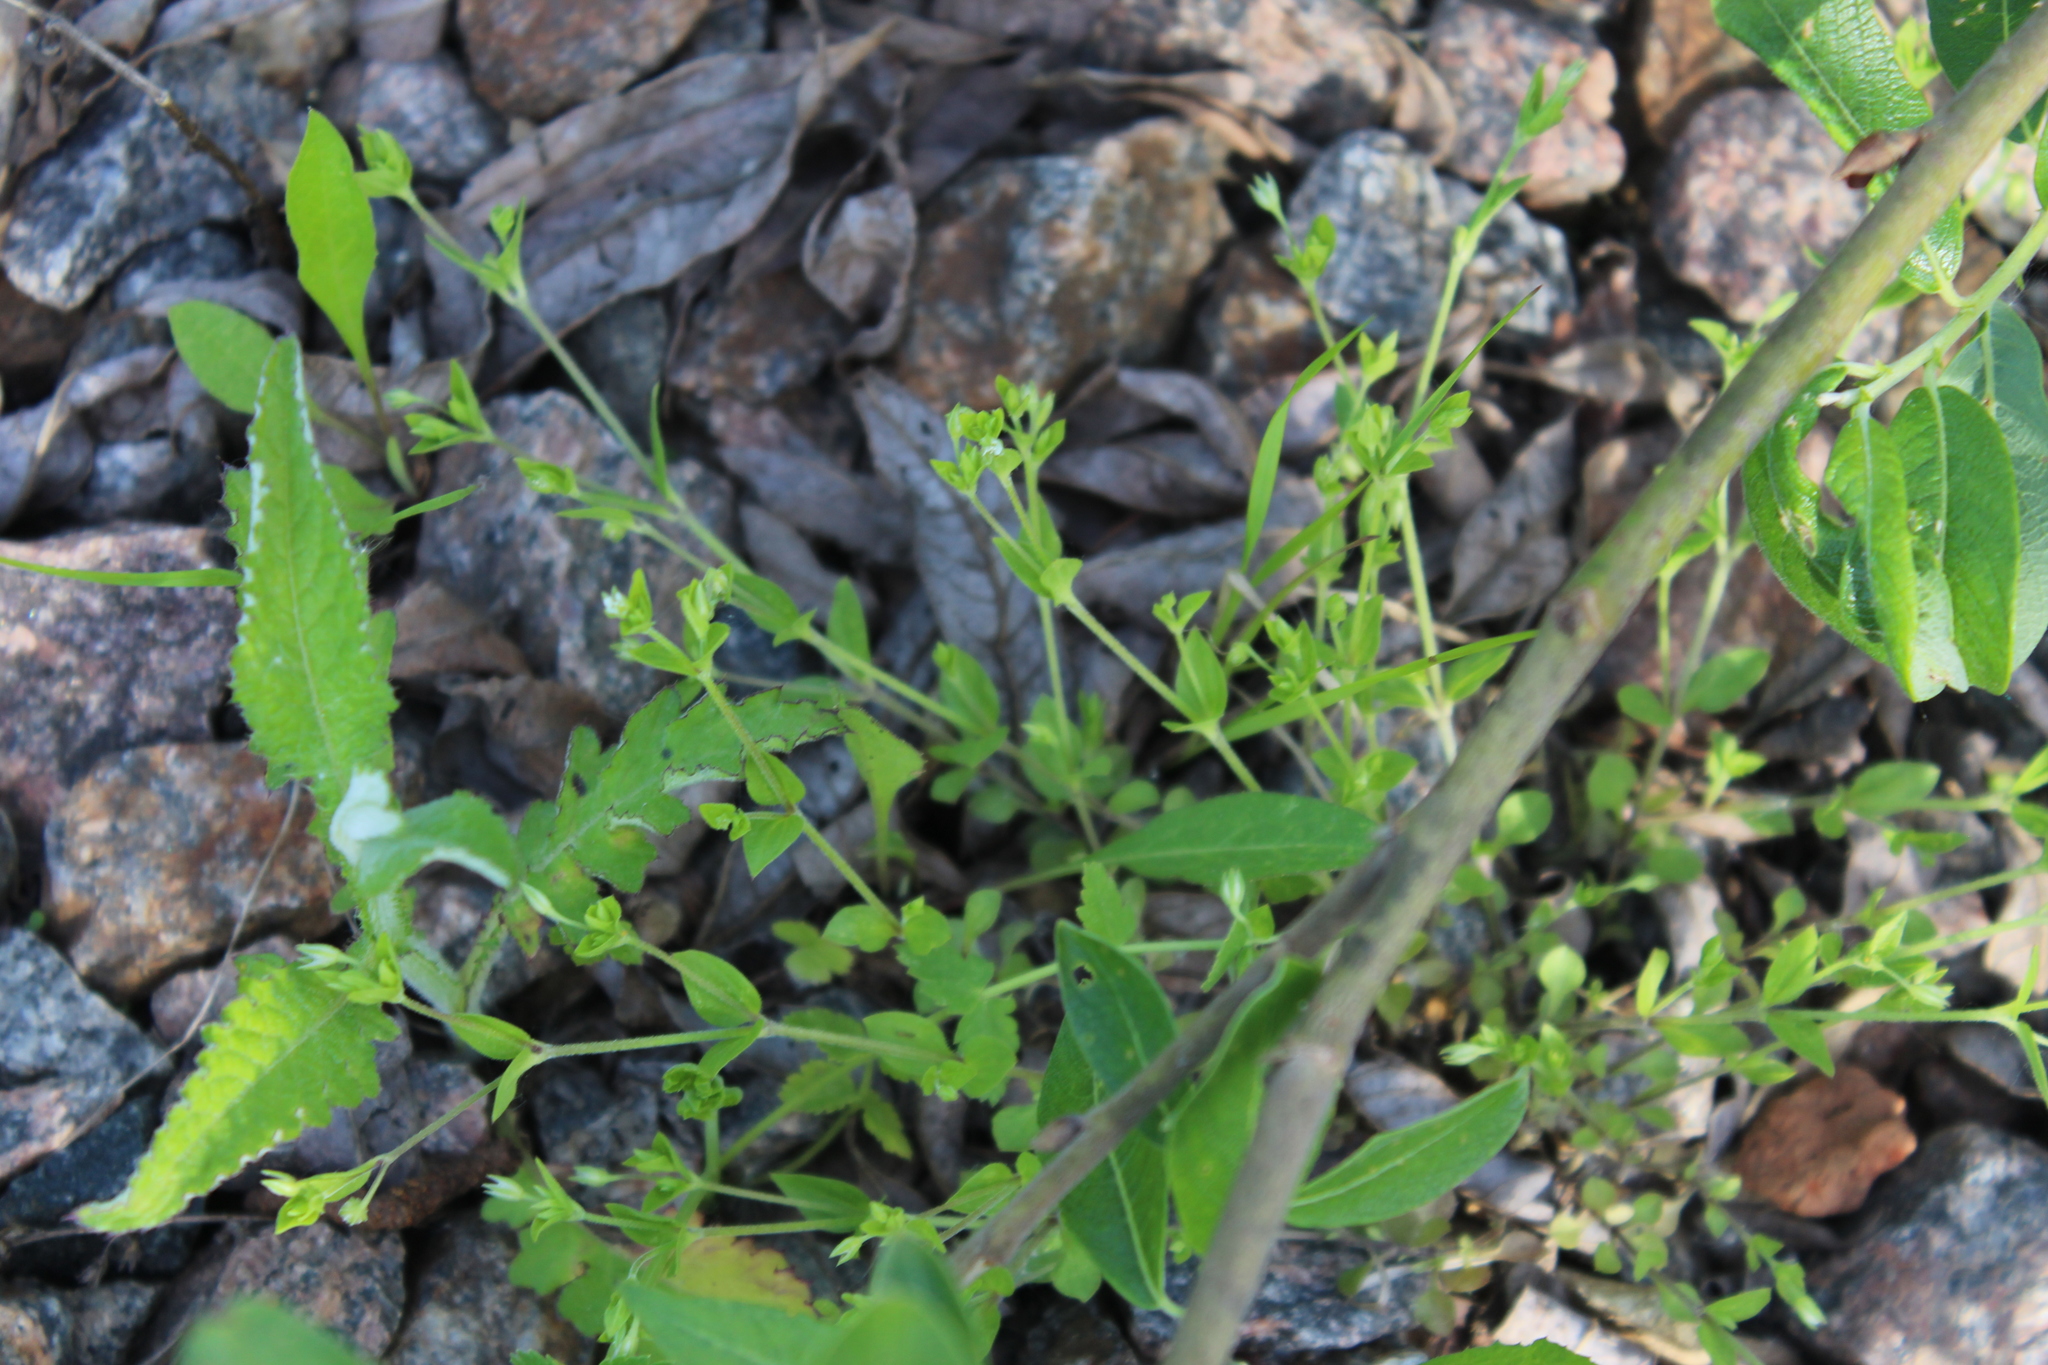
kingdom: Plantae
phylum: Tracheophyta
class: Magnoliopsida
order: Caryophyllales
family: Caryophyllaceae
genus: Arenaria
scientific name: Arenaria serpyllifolia
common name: Thyme-leaved sandwort
